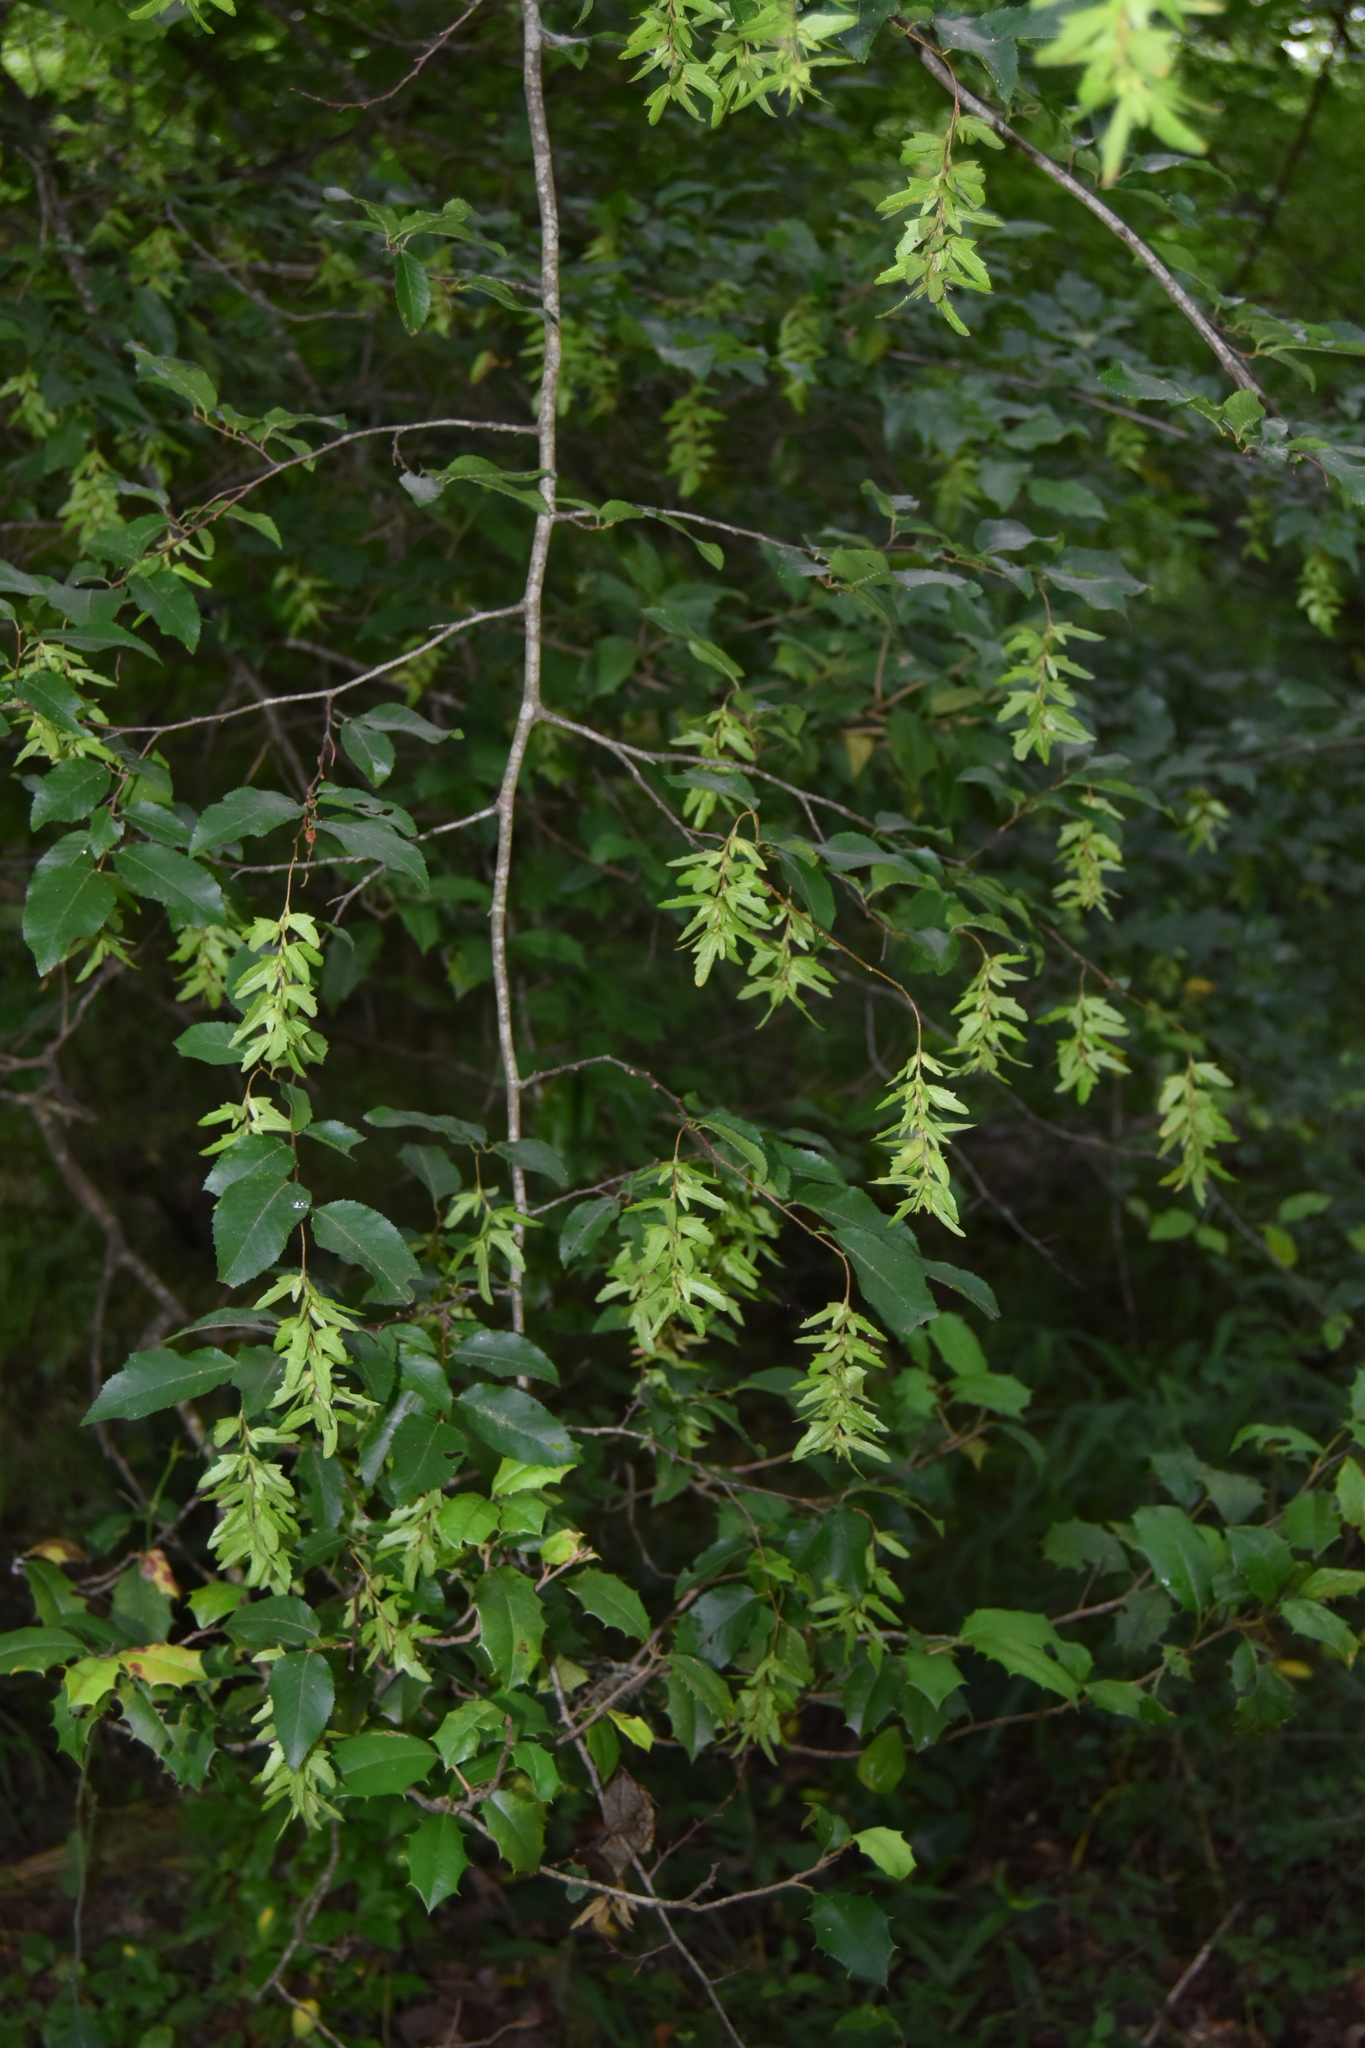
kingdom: Plantae
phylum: Tracheophyta
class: Magnoliopsida
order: Fagales
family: Betulaceae
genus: Carpinus
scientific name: Carpinus caroliniana
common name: American hornbeam
